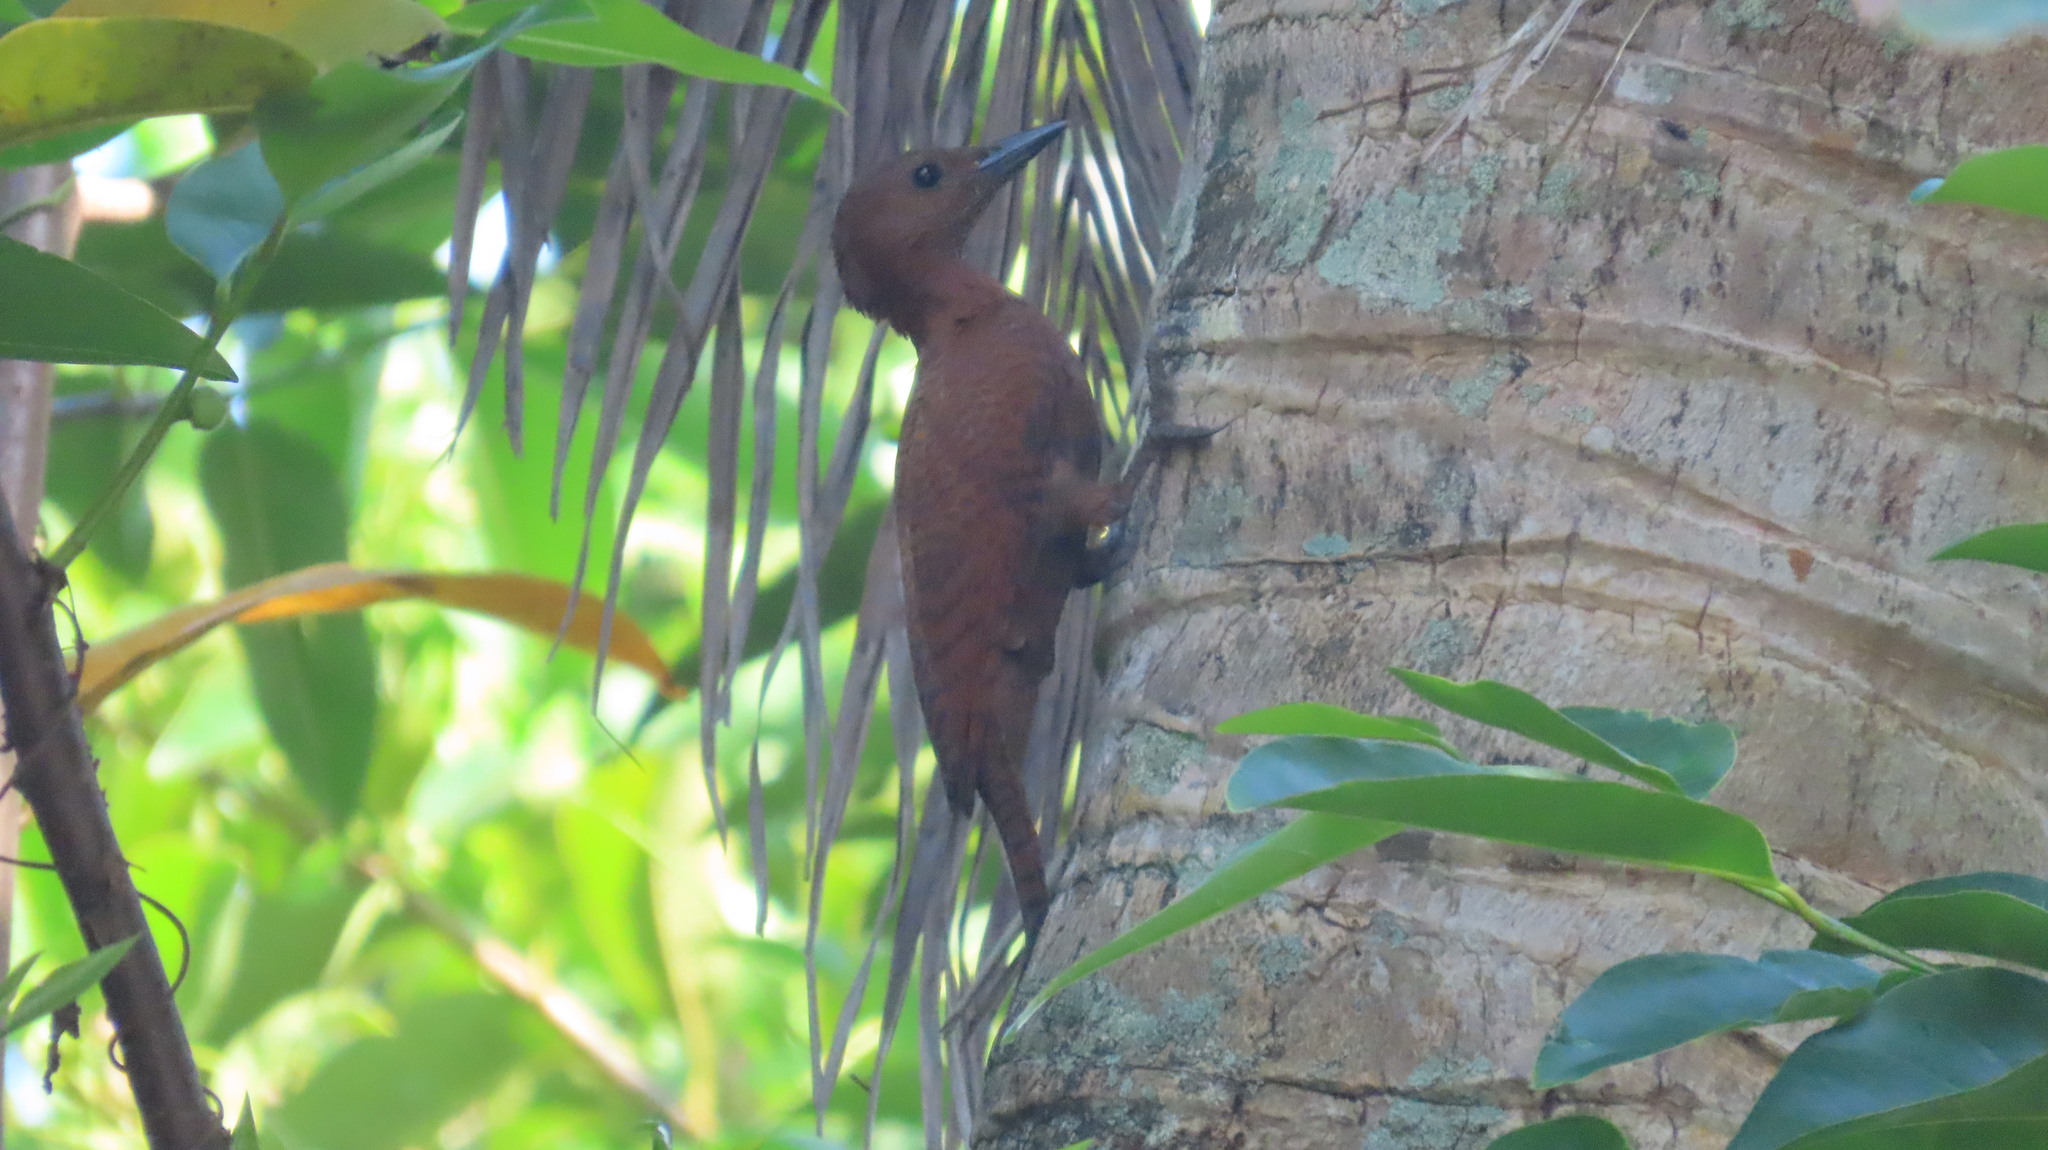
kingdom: Animalia
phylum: Chordata
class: Aves
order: Piciformes
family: Picidae
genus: Micropternus
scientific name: Micropternus brachyurus
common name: Rufous woodpecker
